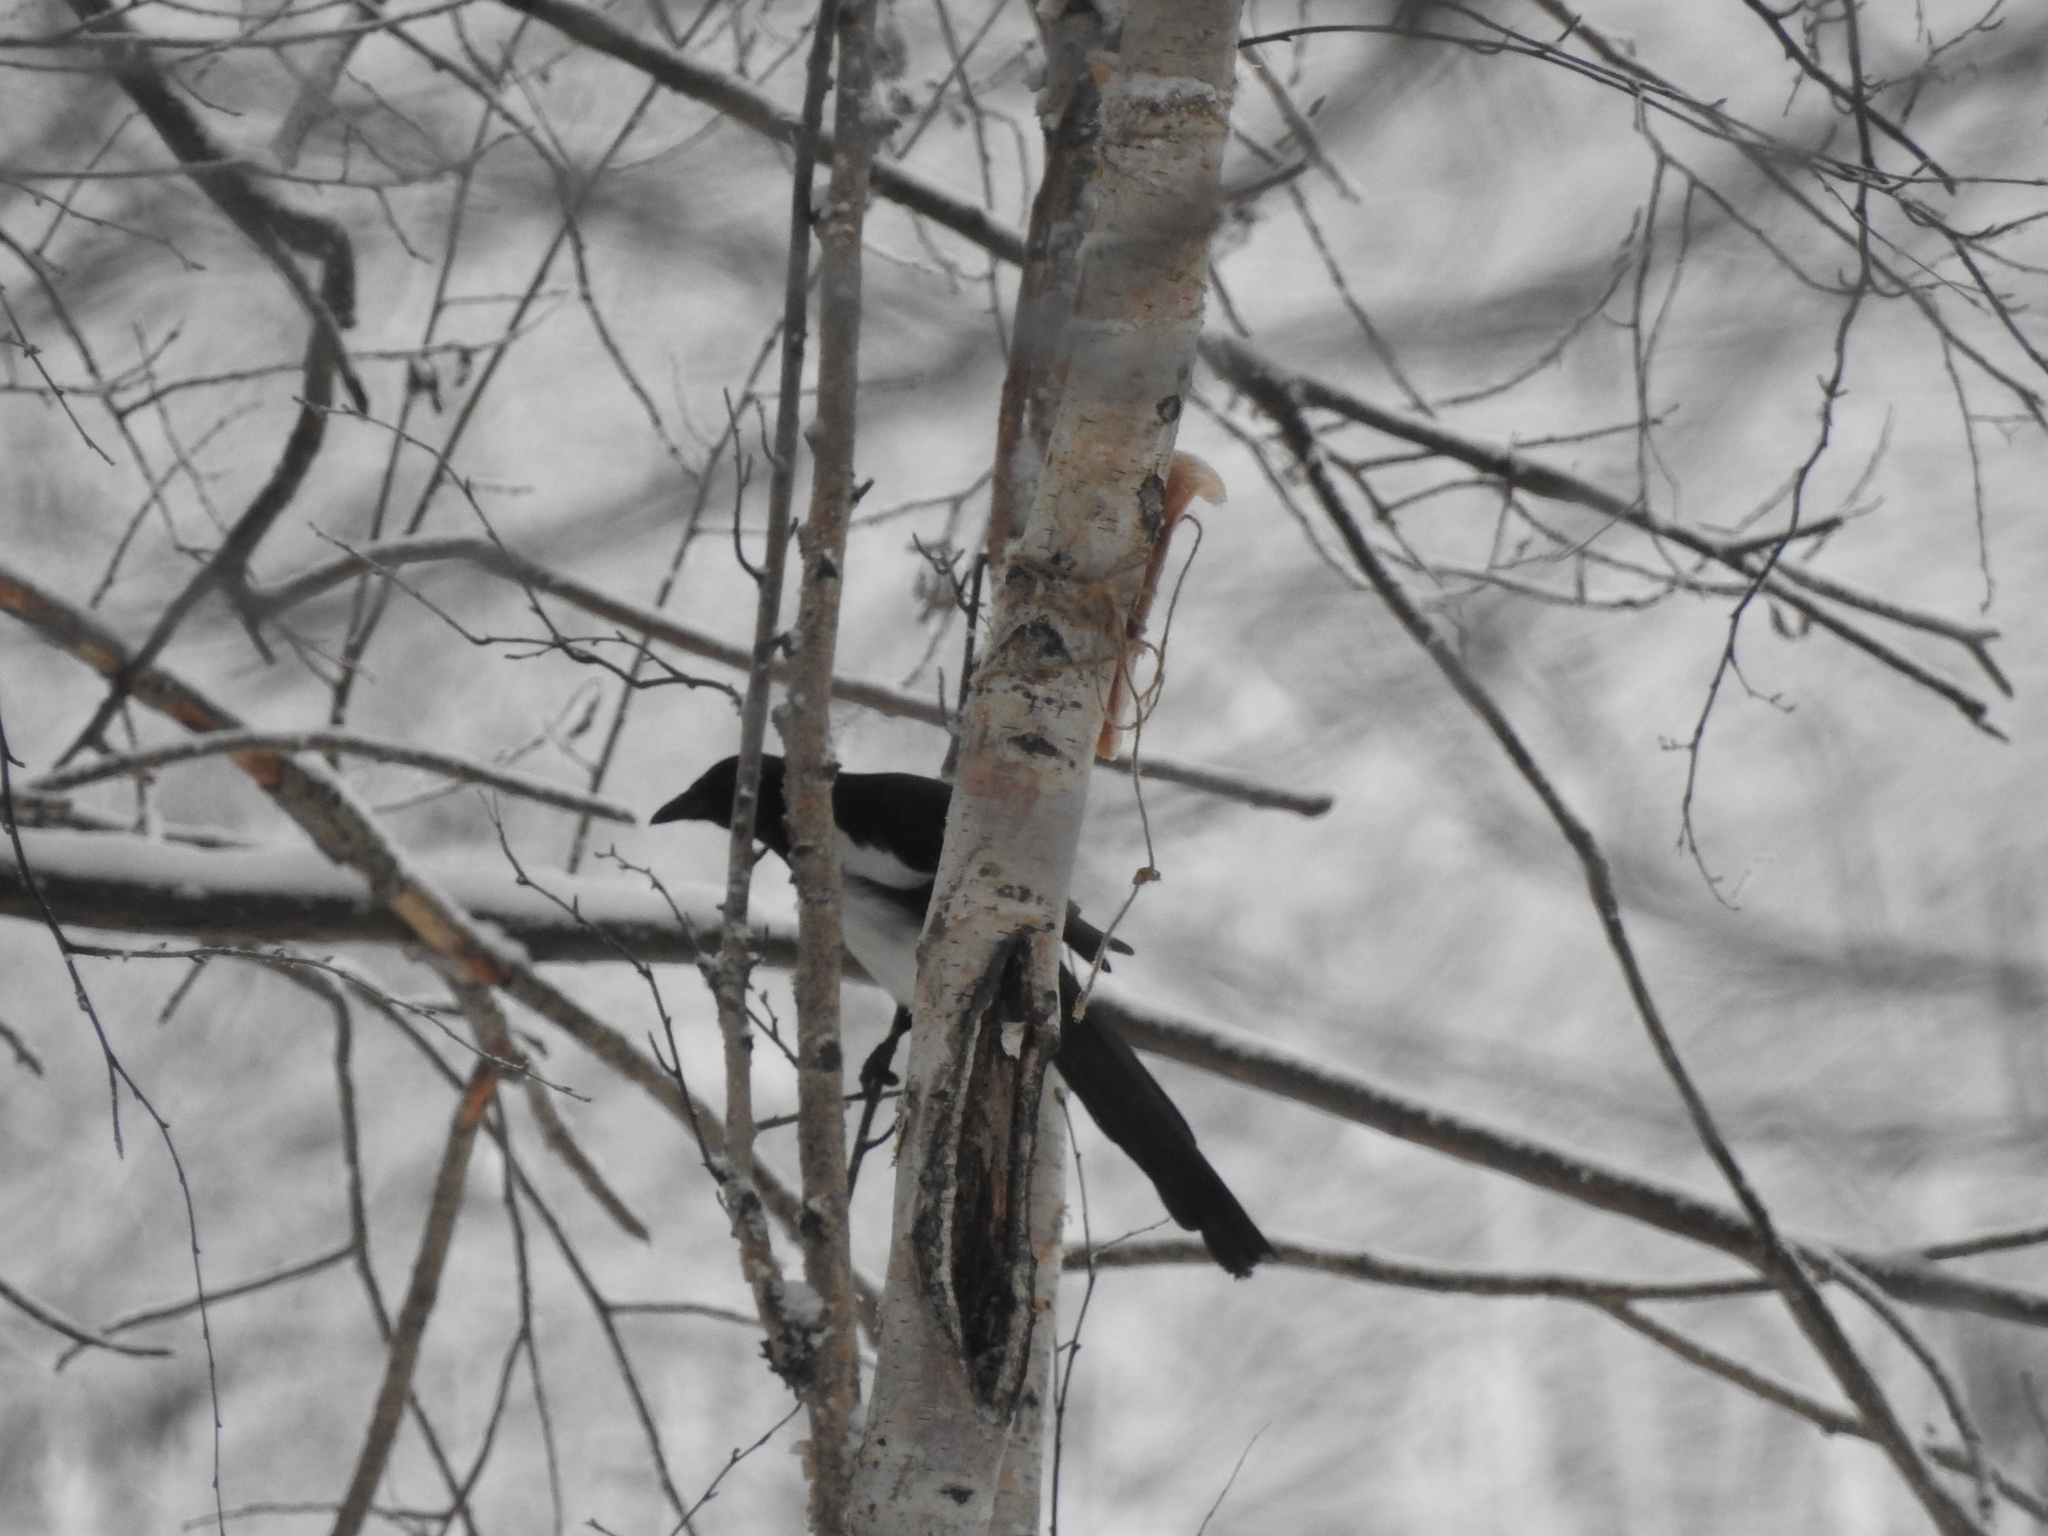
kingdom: Animalia
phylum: Chordata
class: Aves
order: Passeriformes
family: Corvidae
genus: Pica
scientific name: Pica pica
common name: Eurasian magpie
